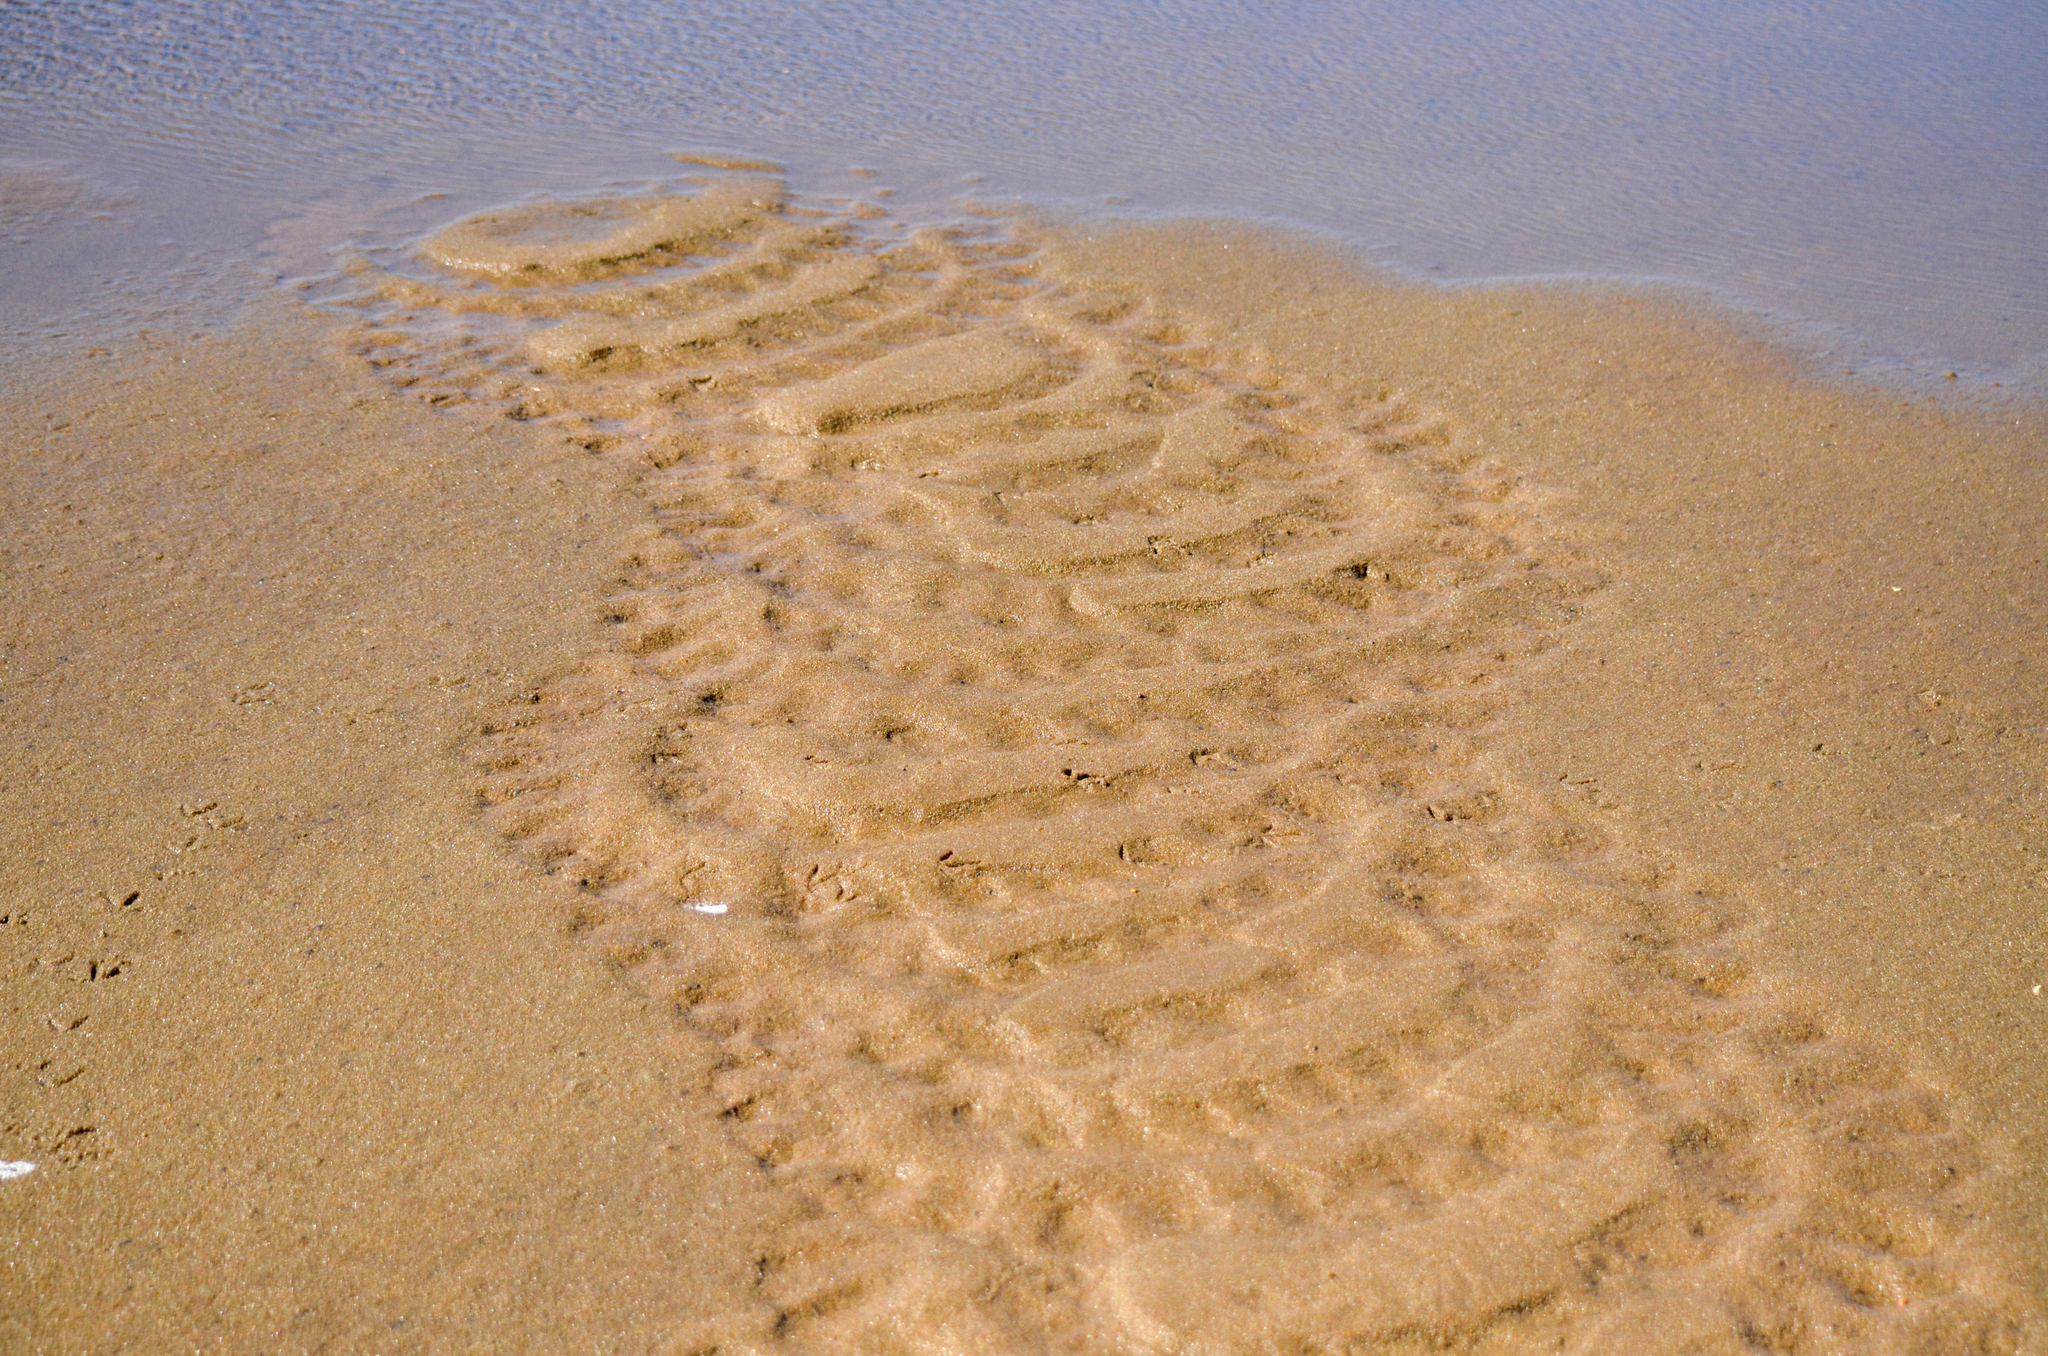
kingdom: Animalia
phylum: Chordata
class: Aves
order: Phoenicopteriformes
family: Phoenicopteridae
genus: Phoenicopterus
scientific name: Phoenicopterus chilensis
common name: Chilean flamingo
